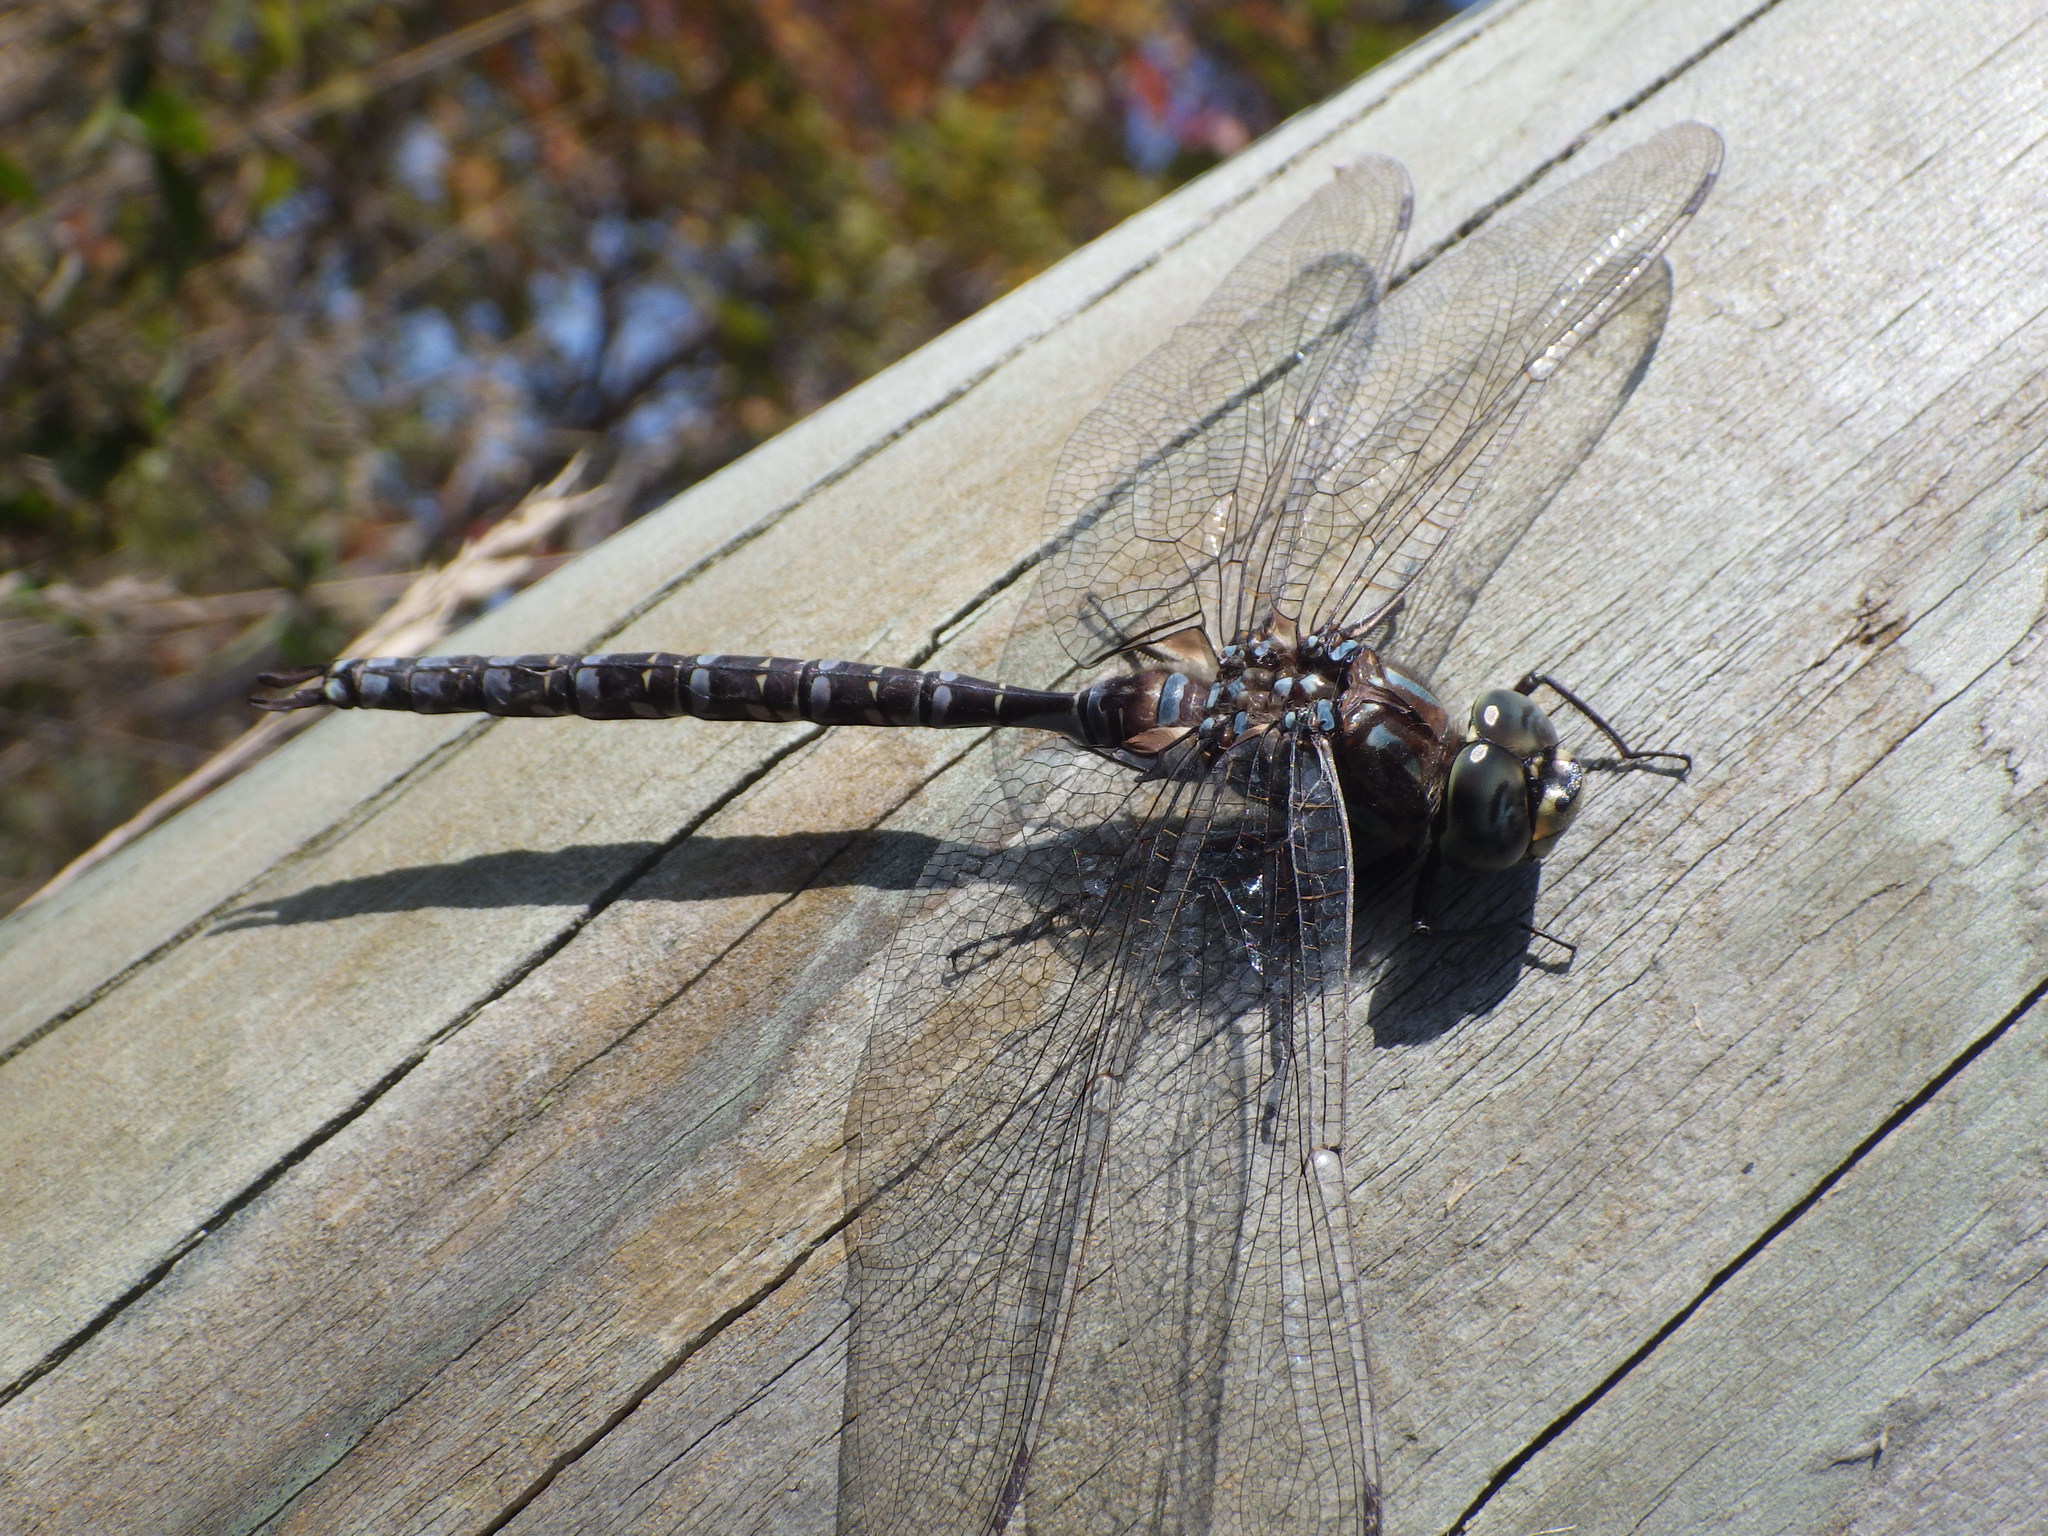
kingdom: Animalia
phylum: Arthropoda
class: Insecta
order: Odonata
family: Aeshnidae
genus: Aeshna
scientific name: Aeshna eremita
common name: Lake darner
